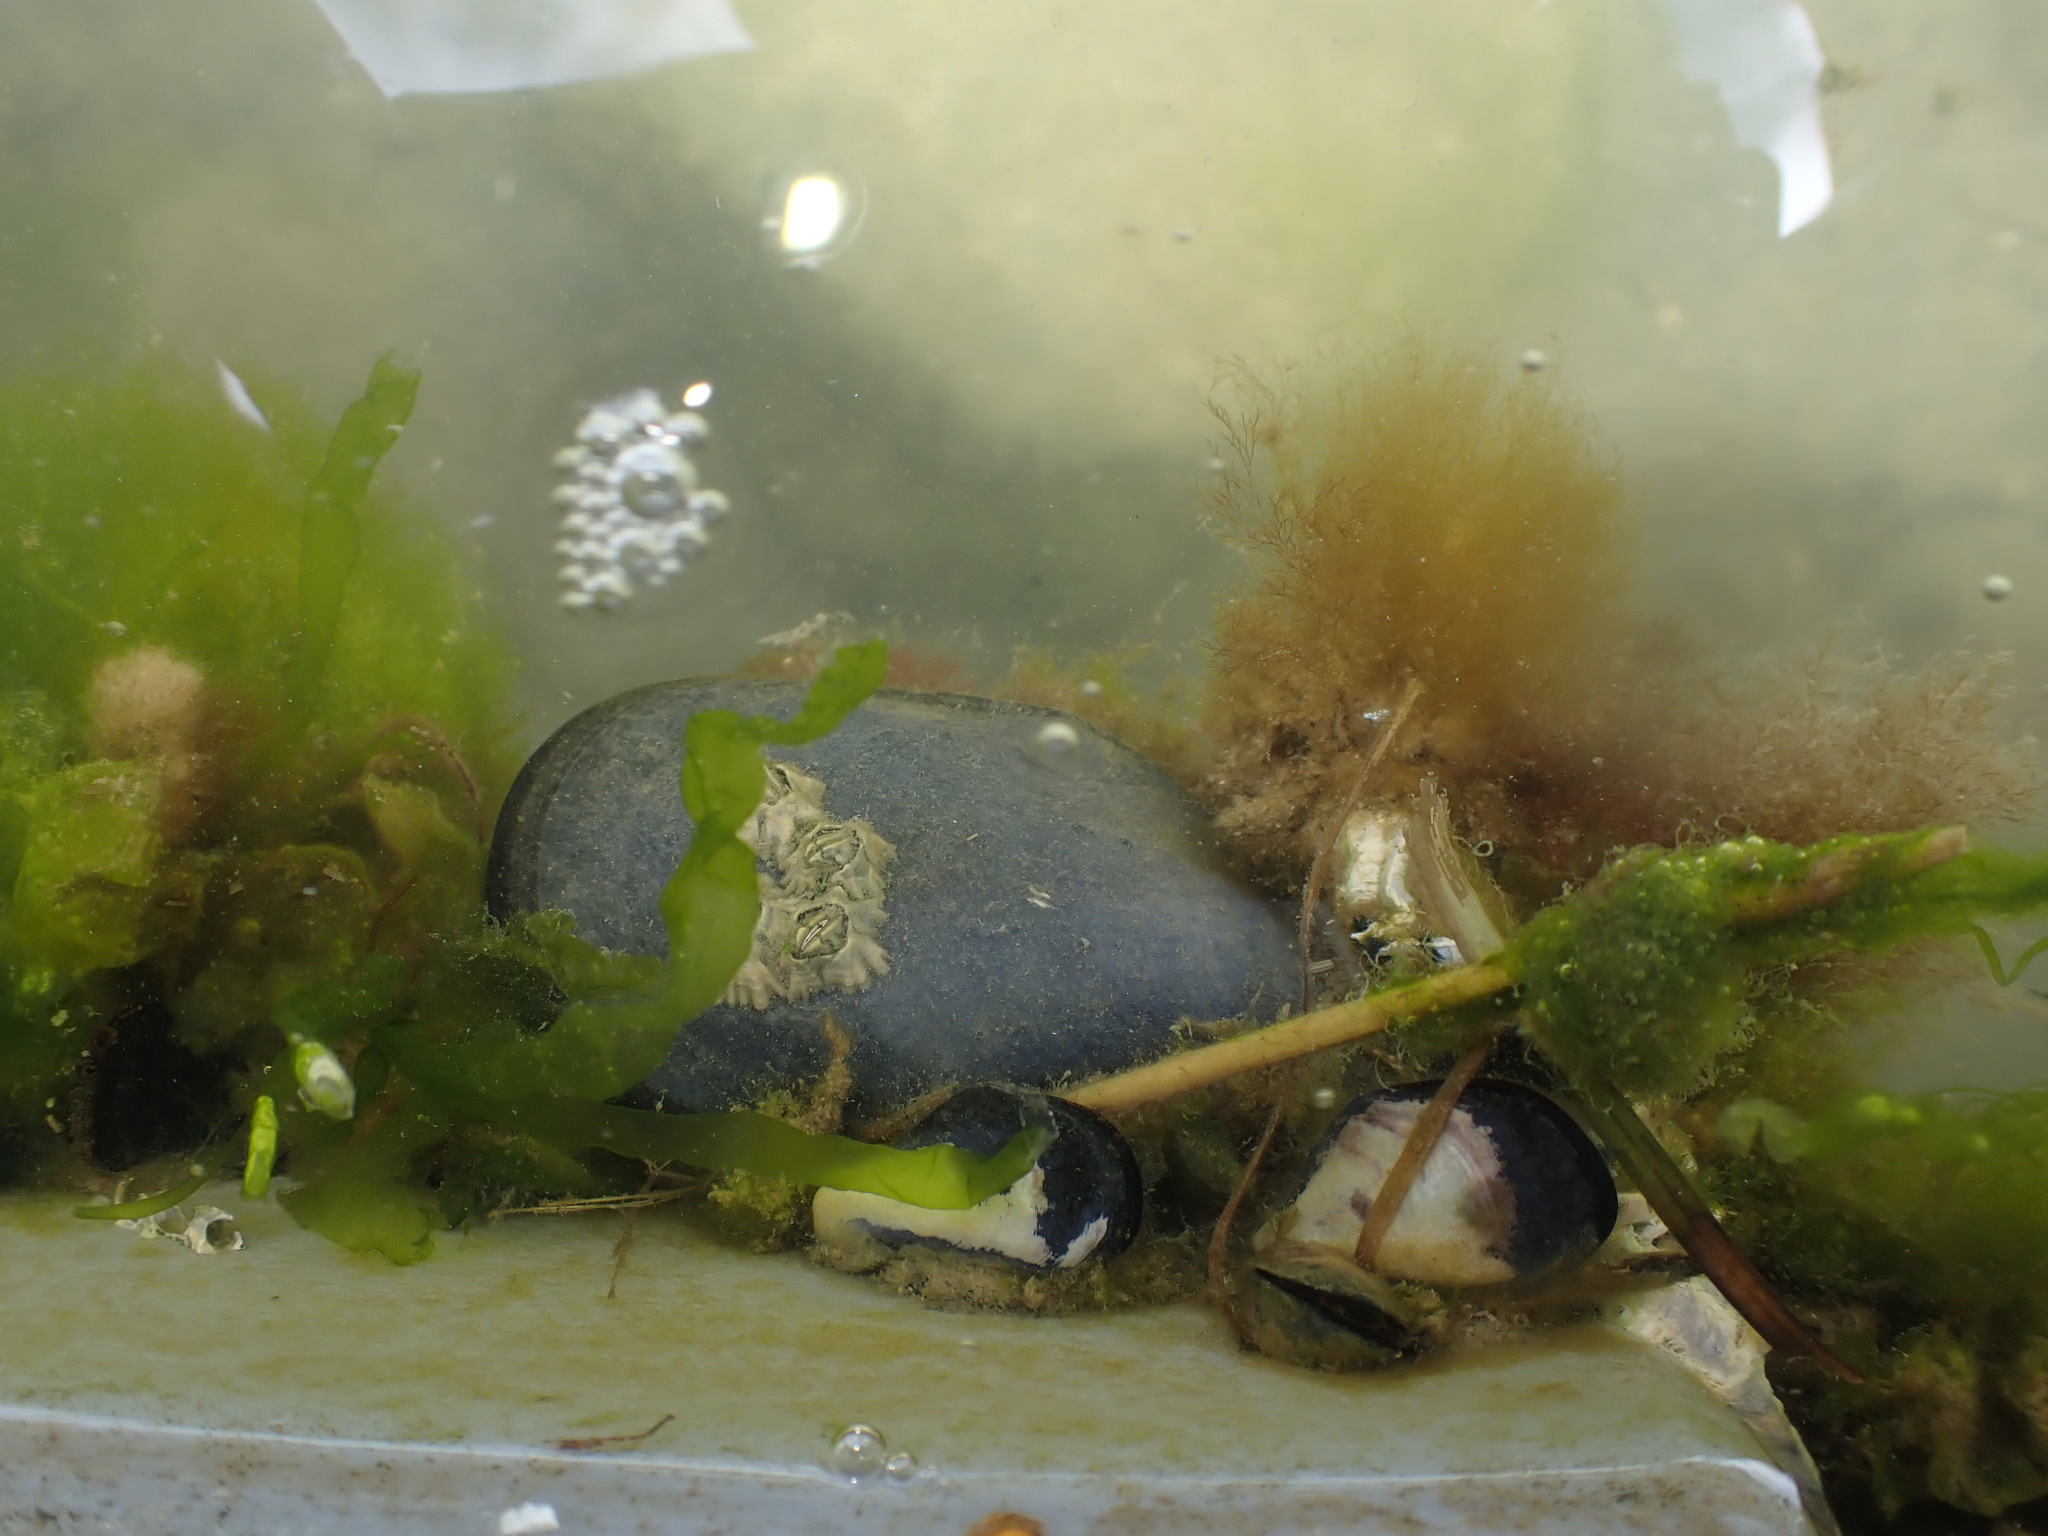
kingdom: Animalia
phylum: Mollusca
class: Bivalvia
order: Mytilida
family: Mytilidae
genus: Mytilus
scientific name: Mytilus planulatus
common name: Australian mussel
